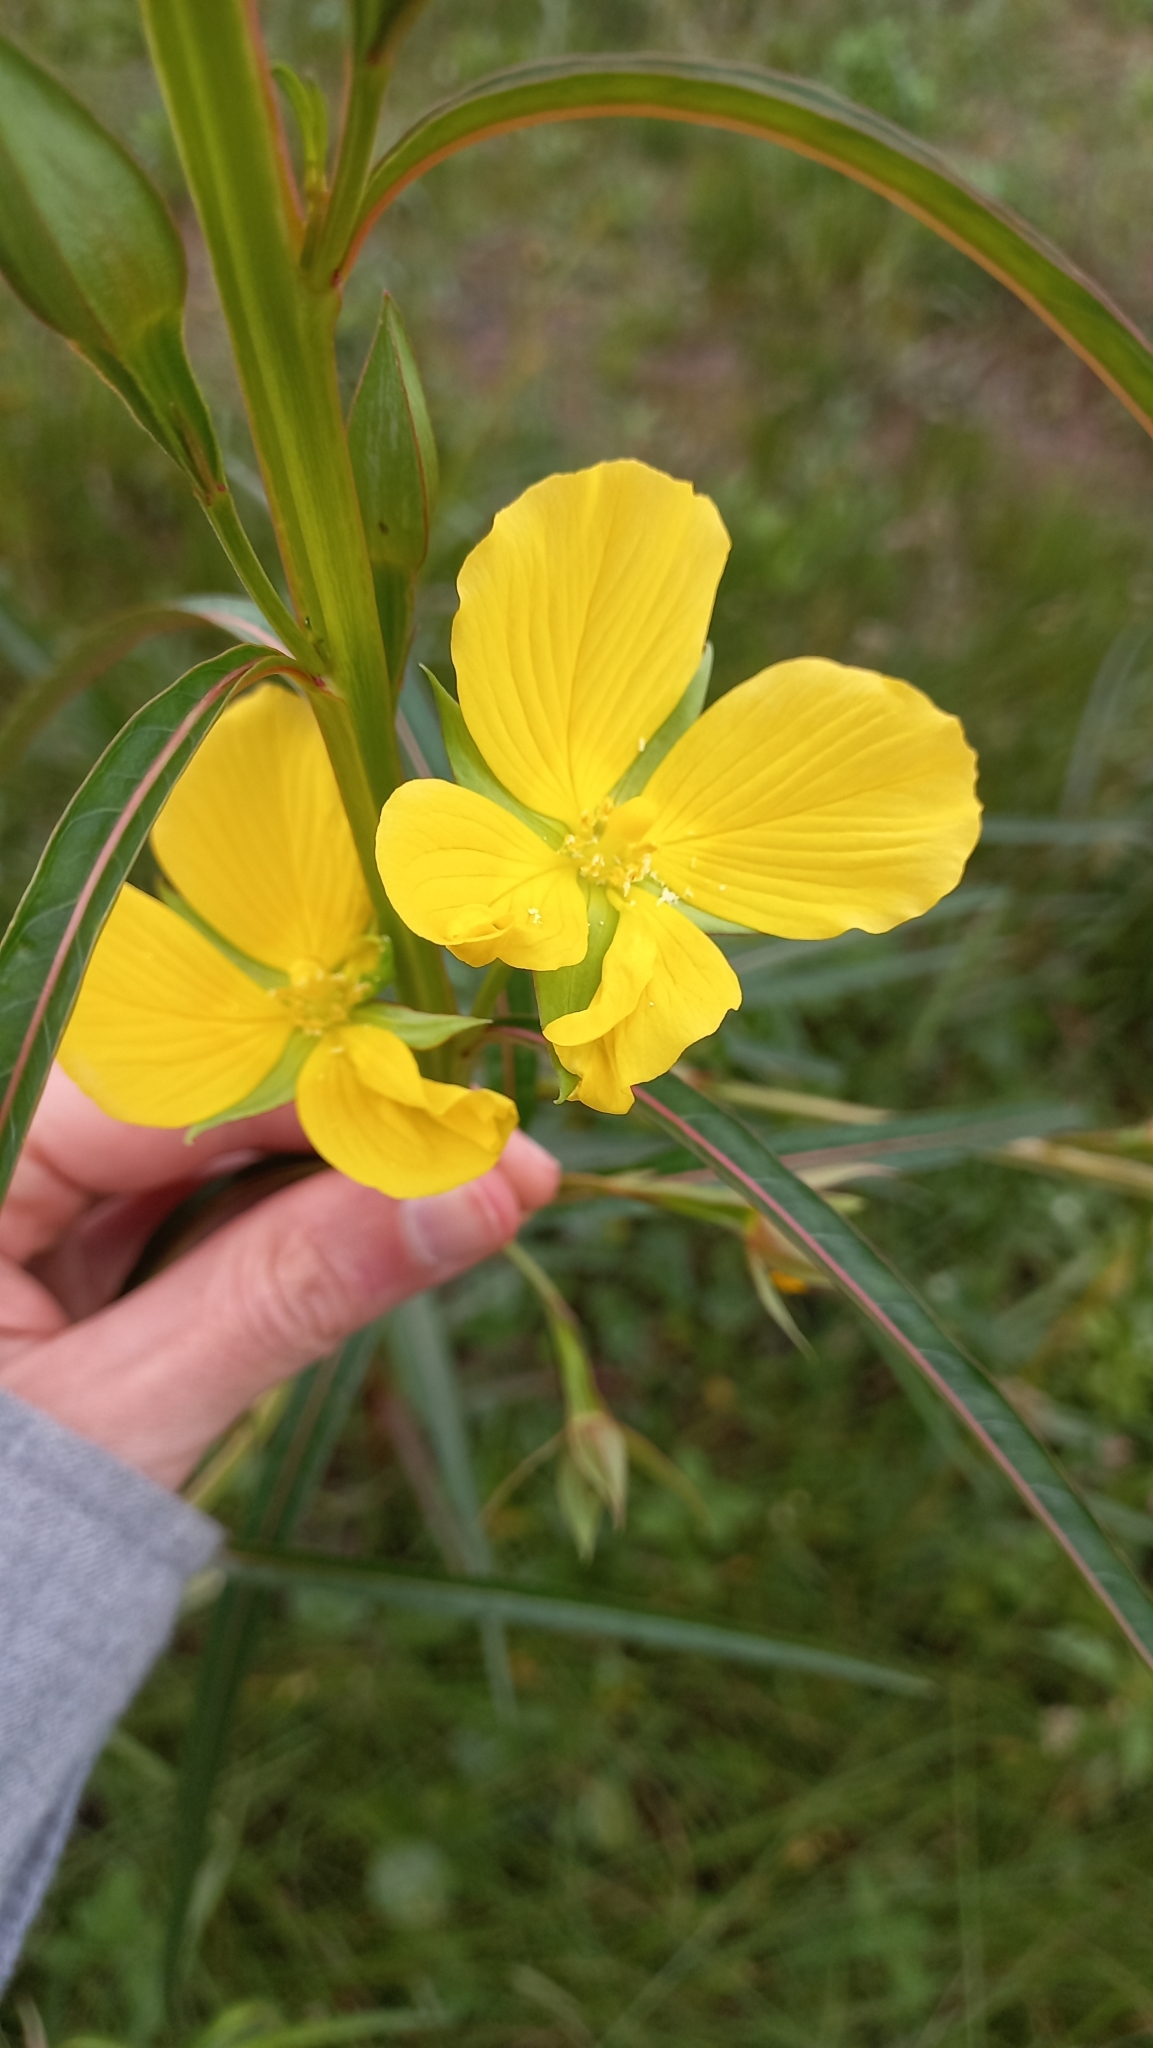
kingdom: Plantae
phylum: Tracheophyta
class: Magnoliopsida
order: Myrtales
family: Onagraceae
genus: Ludwigia
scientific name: Ludwigia longifolia
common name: Longleaf primrose-willow
